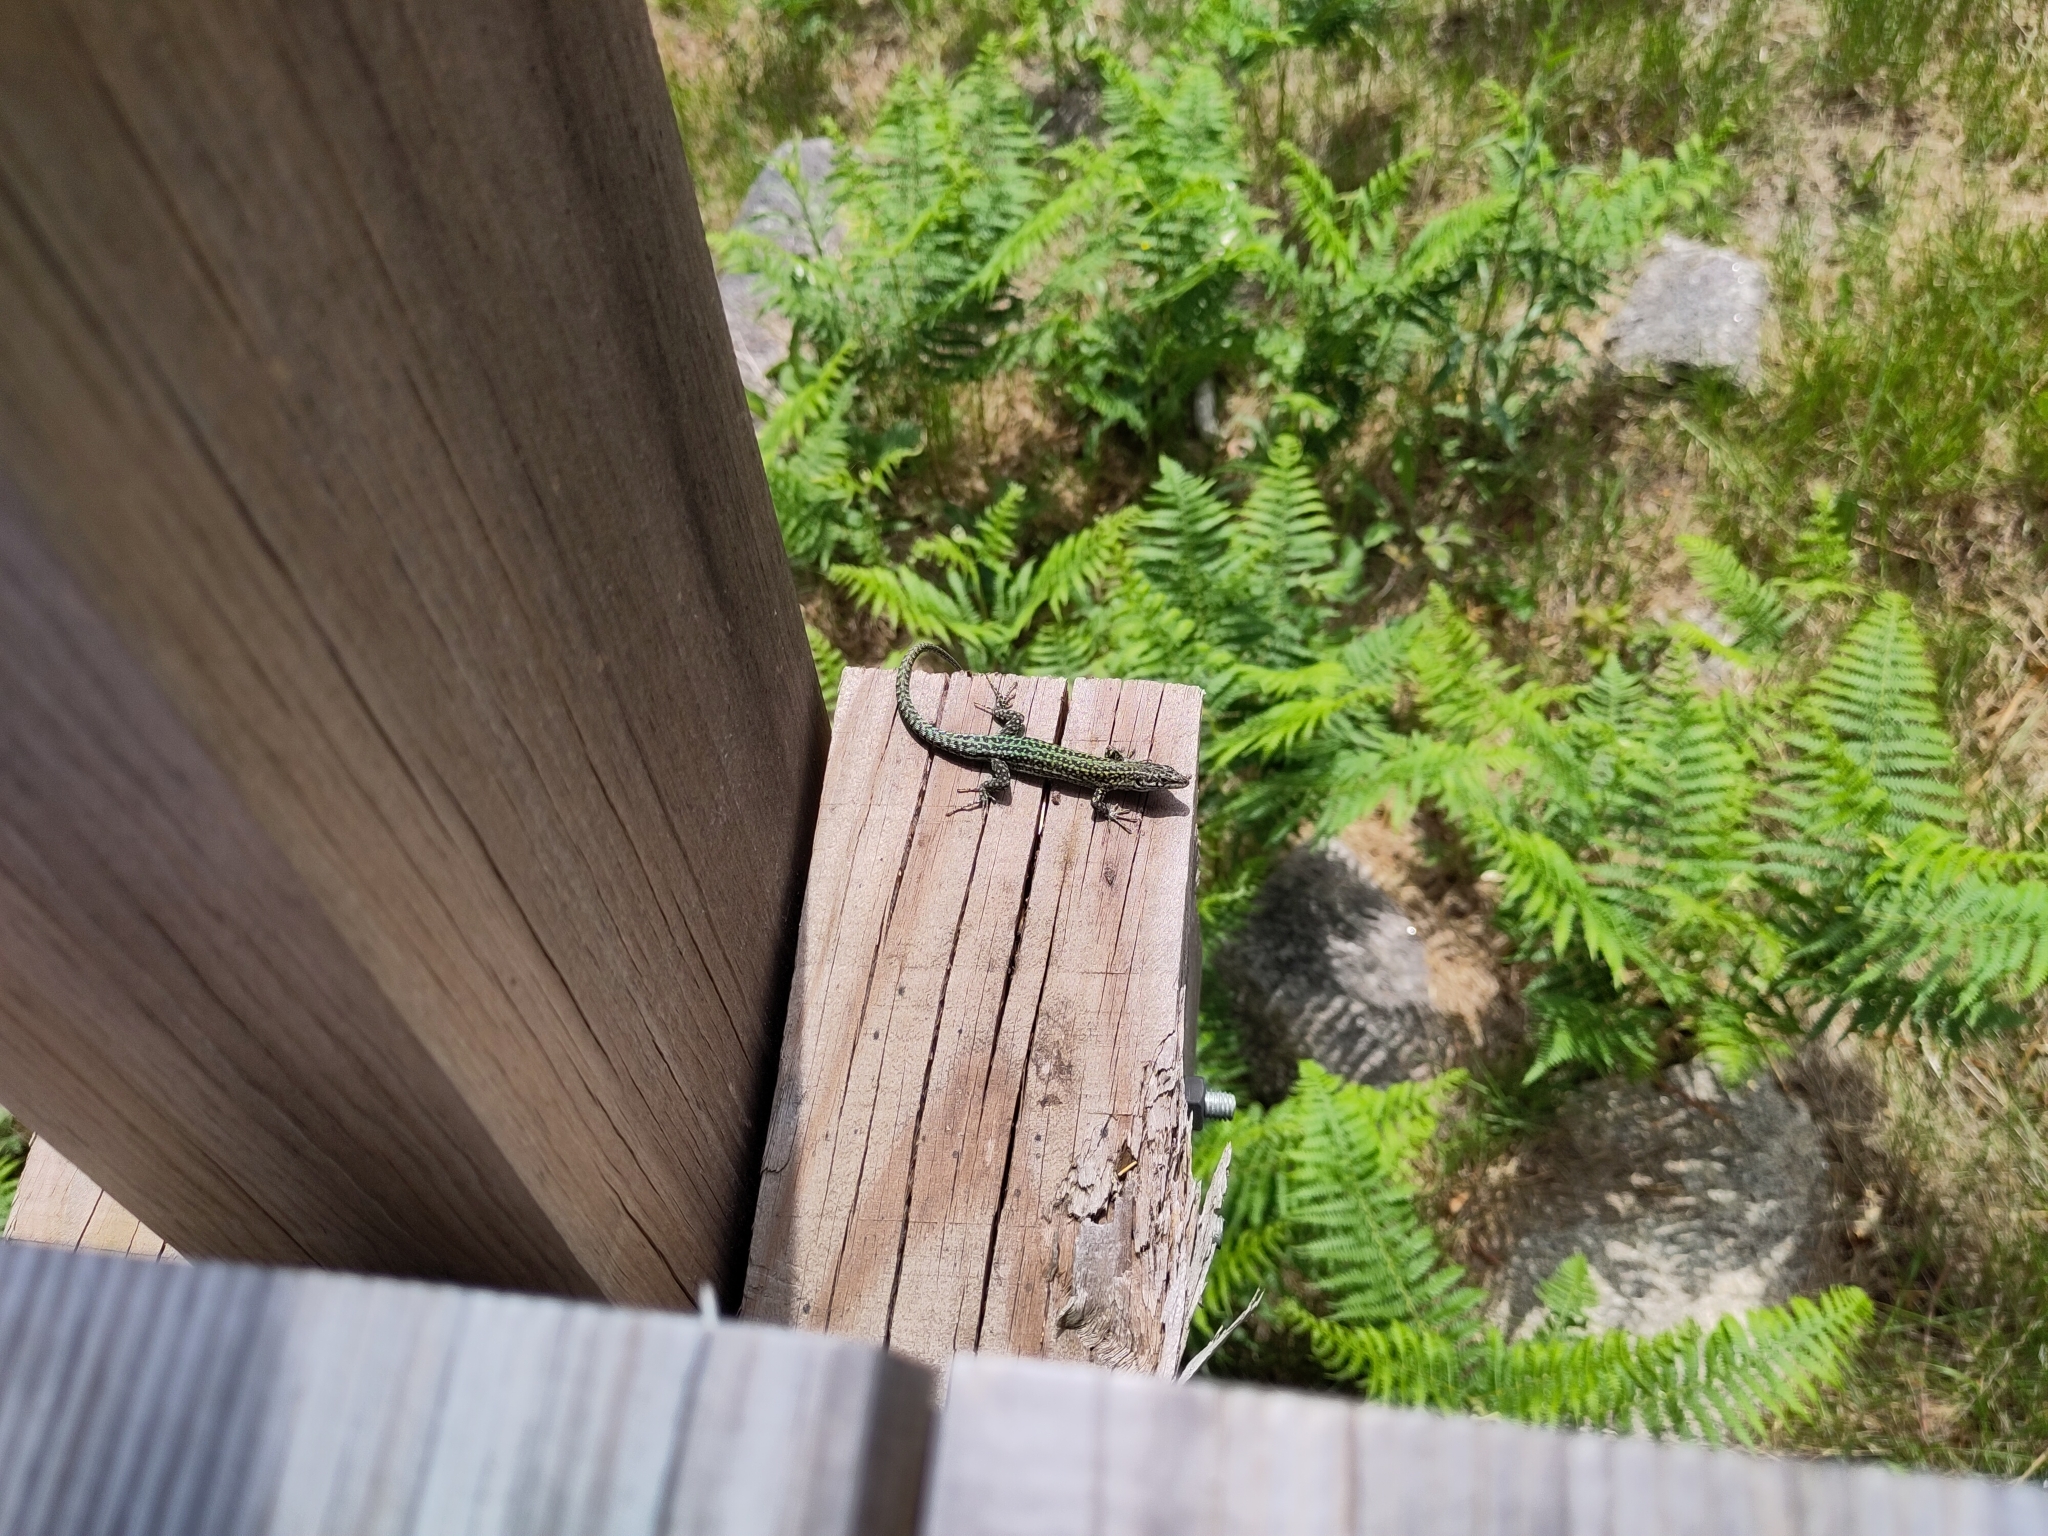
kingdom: Animalia
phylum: Chordata
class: Squamata
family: Lacertidae
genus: Podarcis
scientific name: Podarcis
